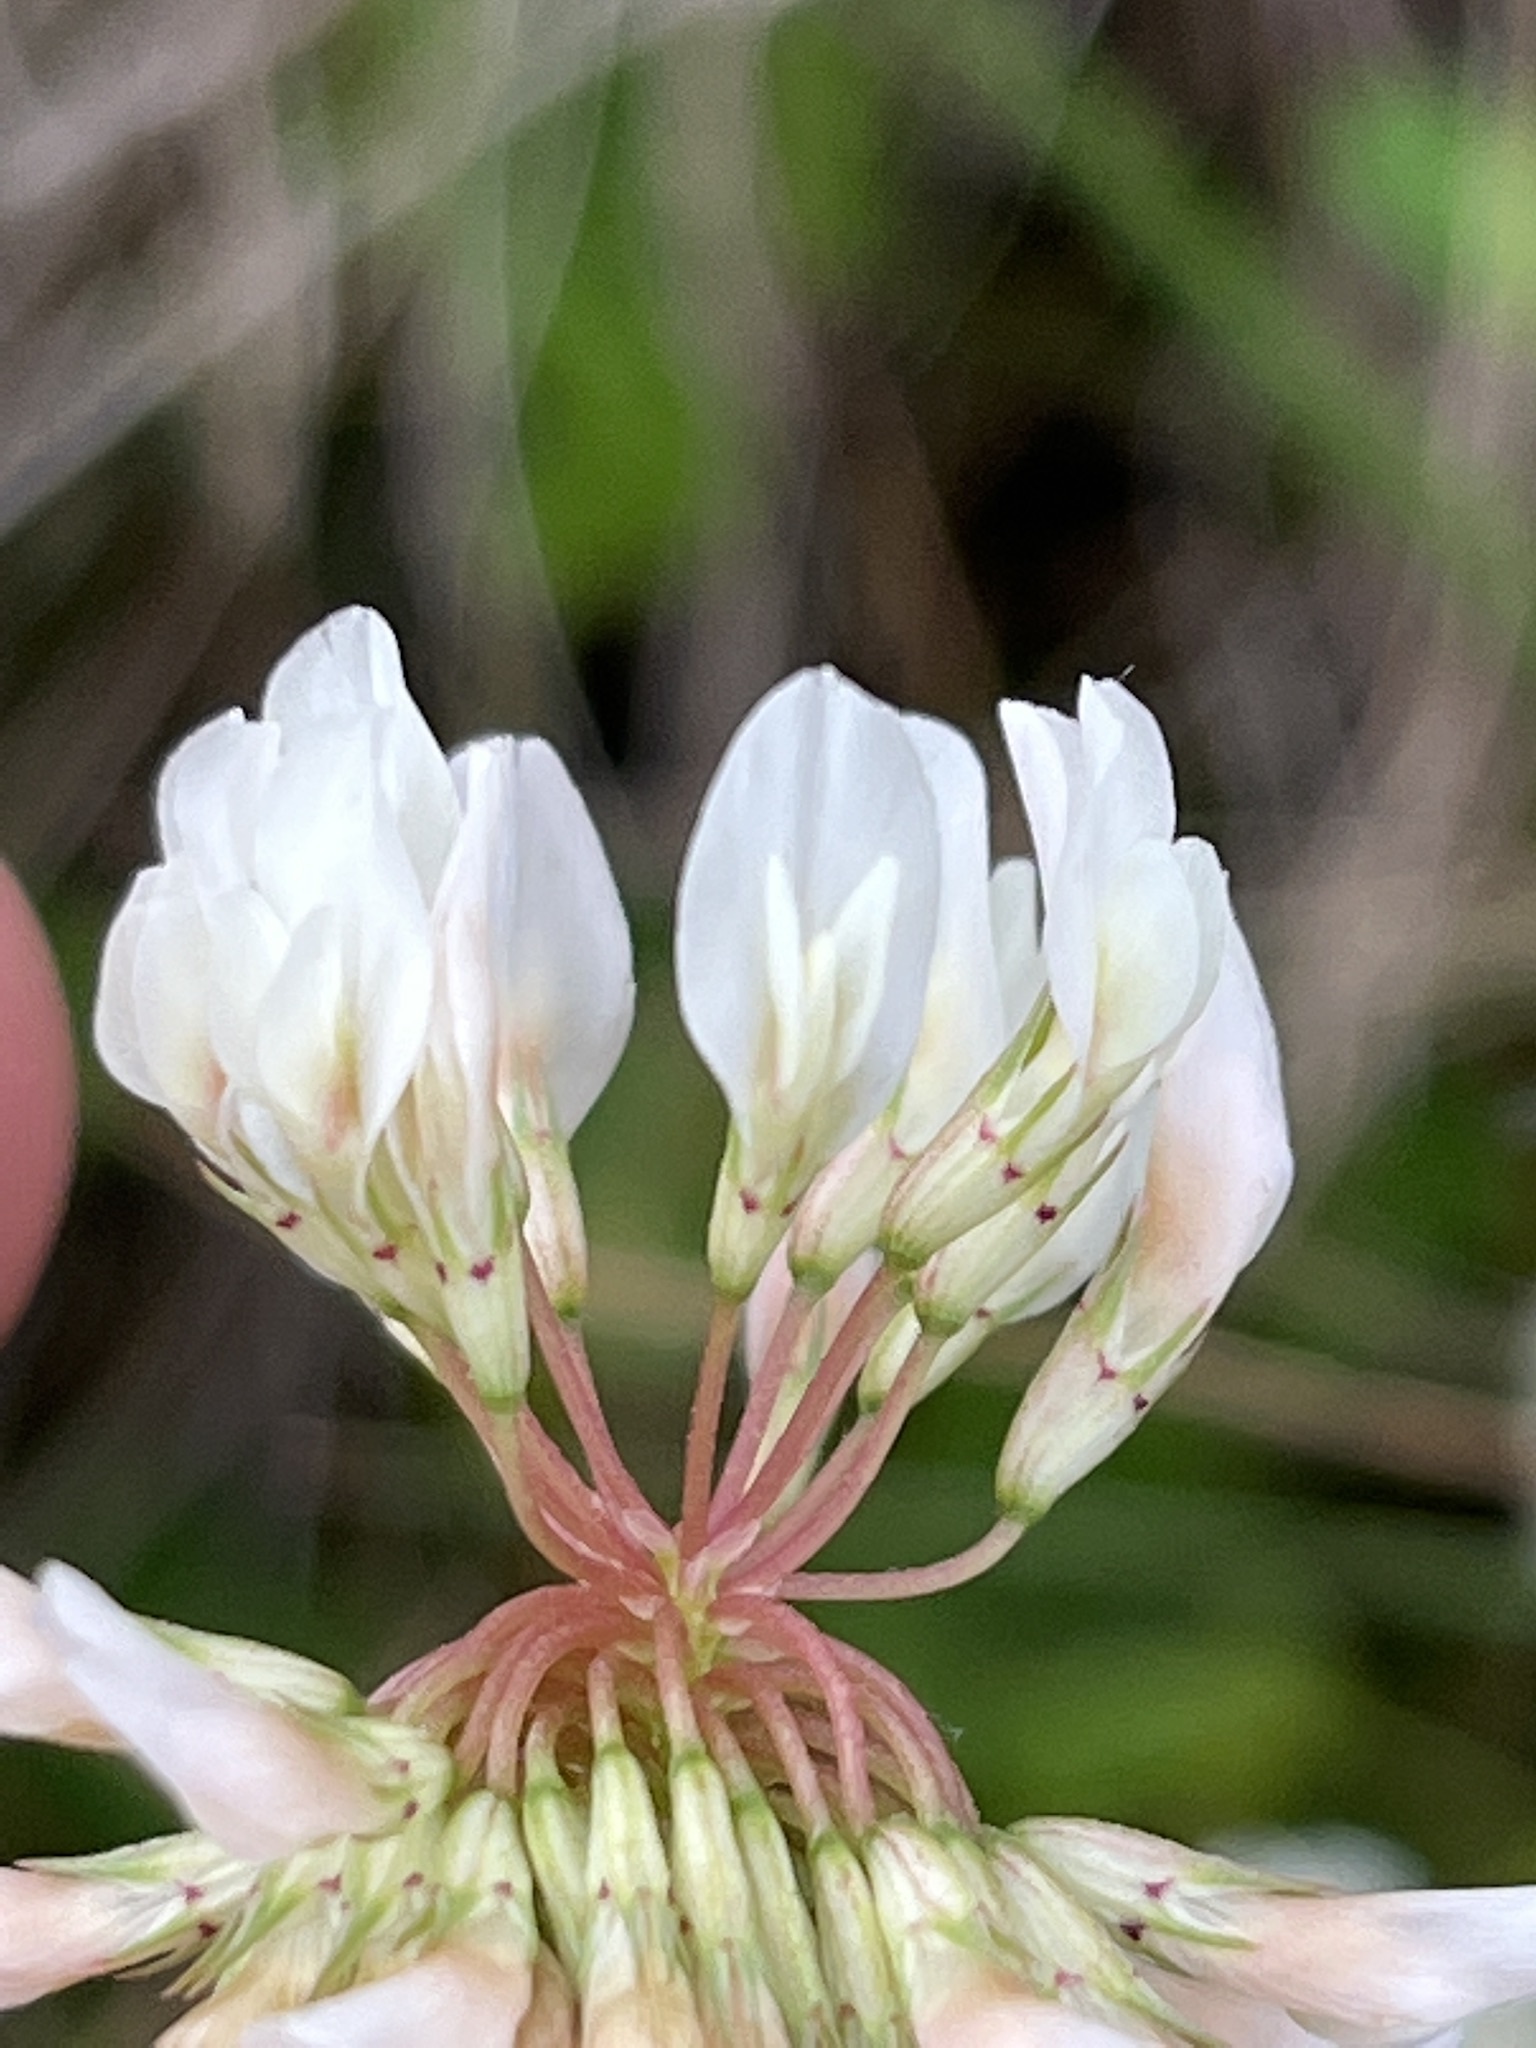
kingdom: Plantae
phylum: Tracheophyta
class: Magnoliopsida
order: Fabales
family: Fabaceae
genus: Trifolium
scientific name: Trifolium repens
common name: White clover
